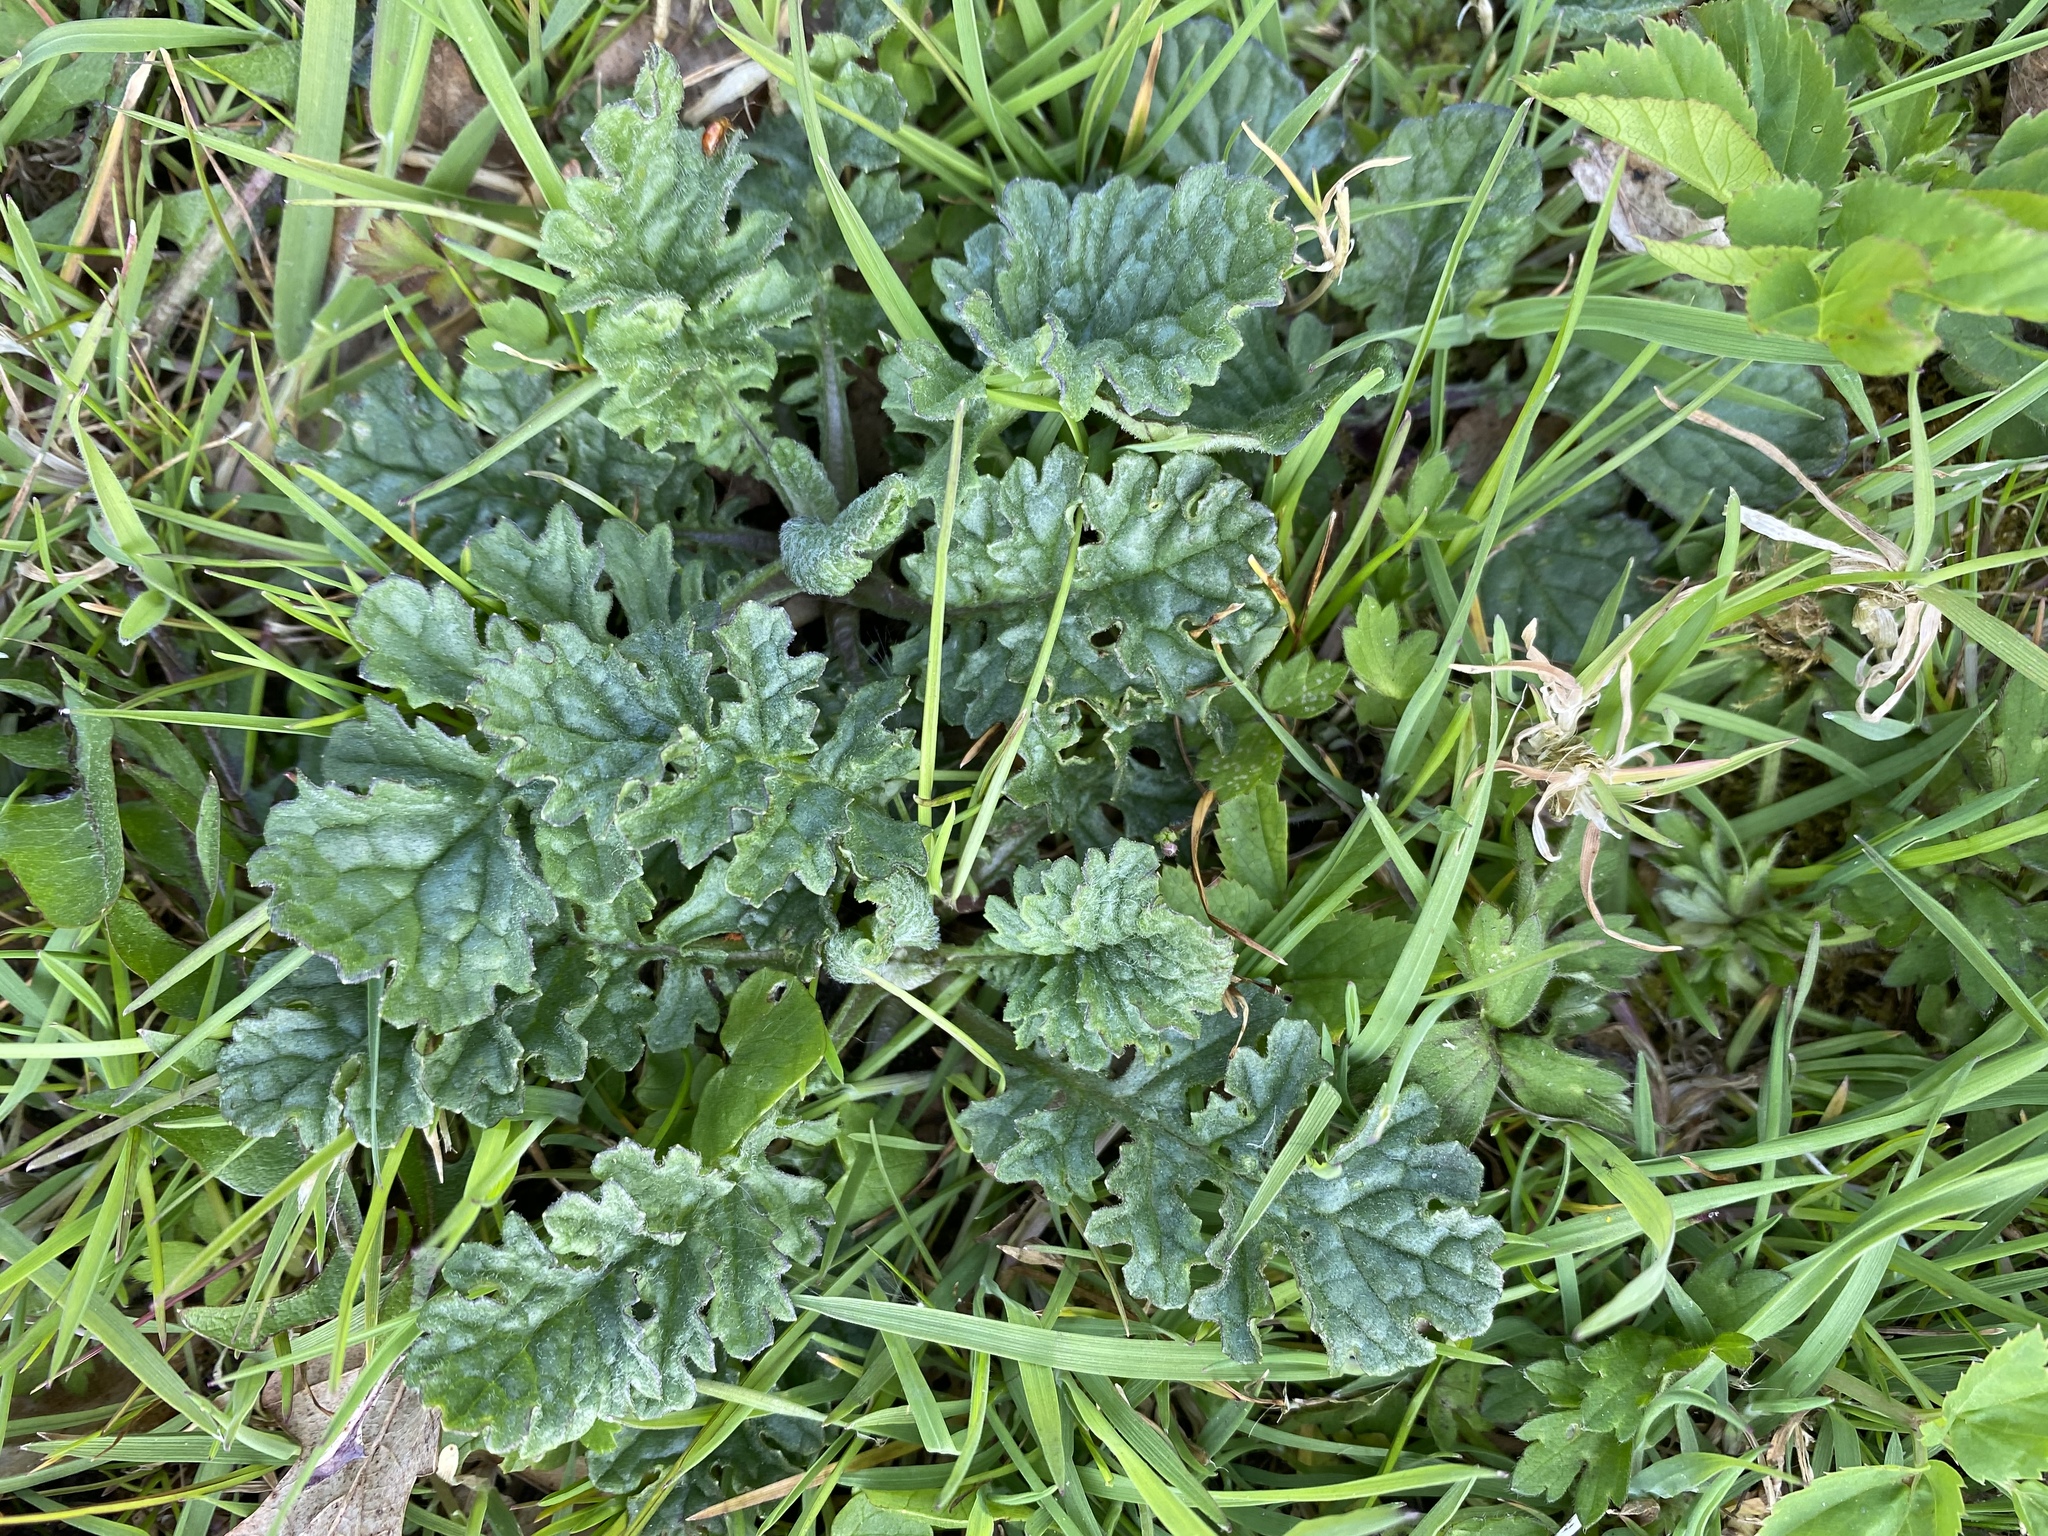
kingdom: Plantae
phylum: Tracheophyta
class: Magnoliopsida
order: Asterales
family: Asteraceae
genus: Jacobaea
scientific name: Jacobaea vulgaris
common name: Stinking willie
